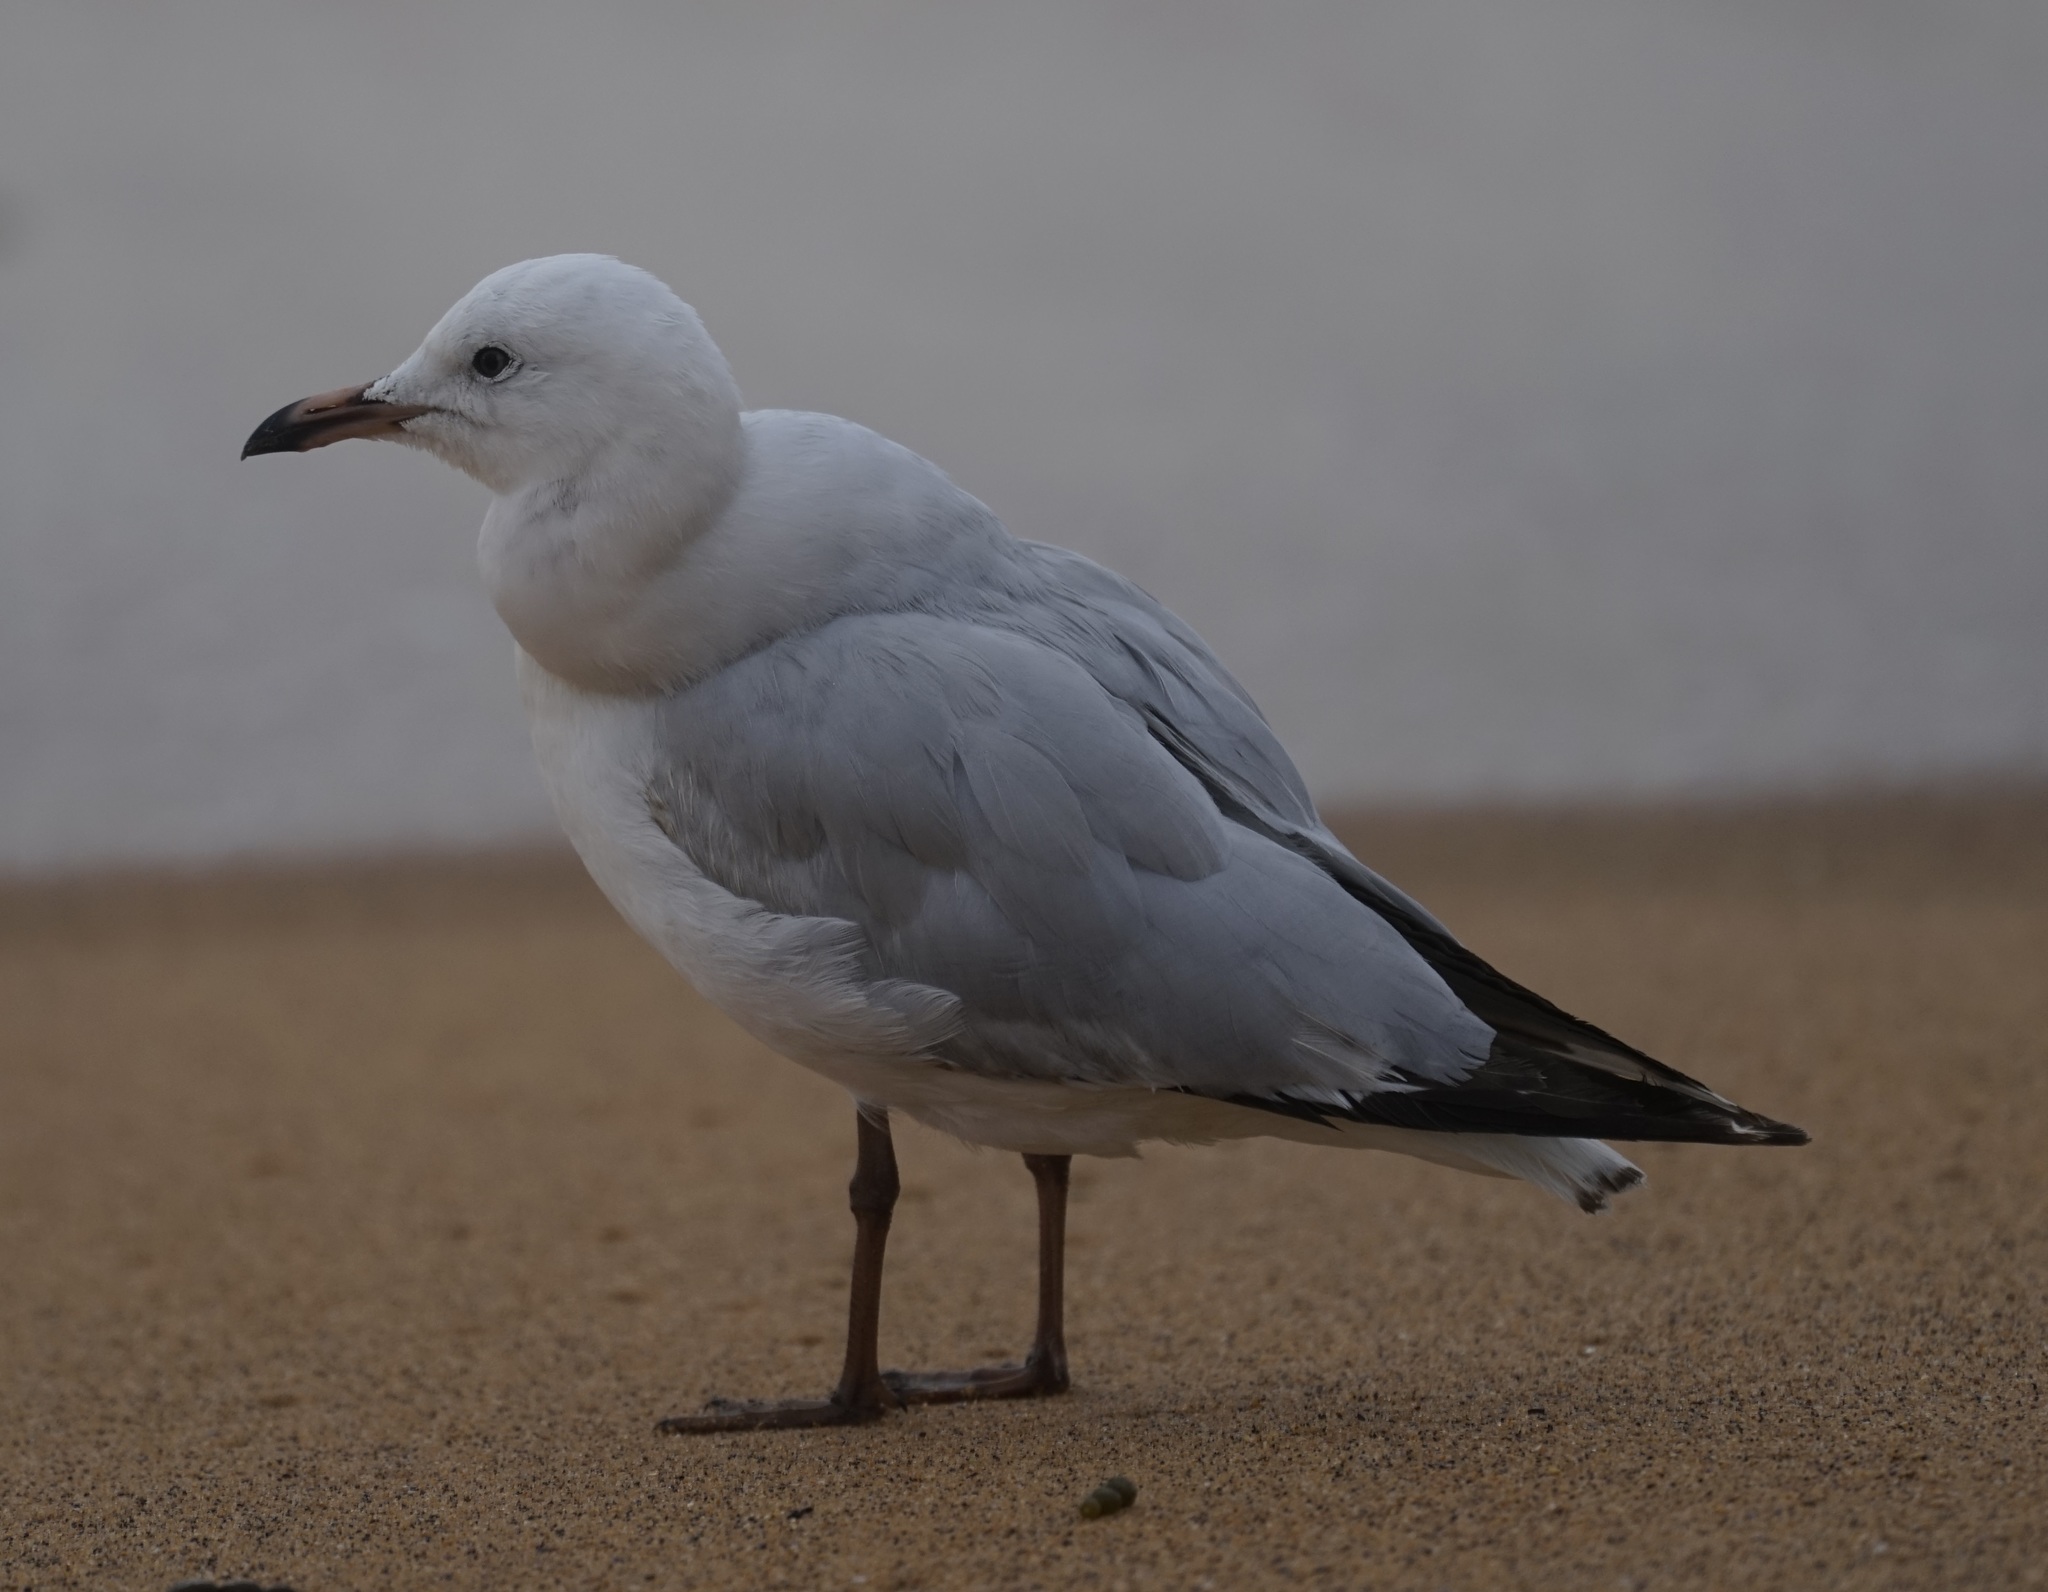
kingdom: Animalia
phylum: Chordata
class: Aves
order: Charadriiformes
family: Laridae
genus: Chroicocephalus
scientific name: Chroicocephalus novaehollandiae
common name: Silver gull
